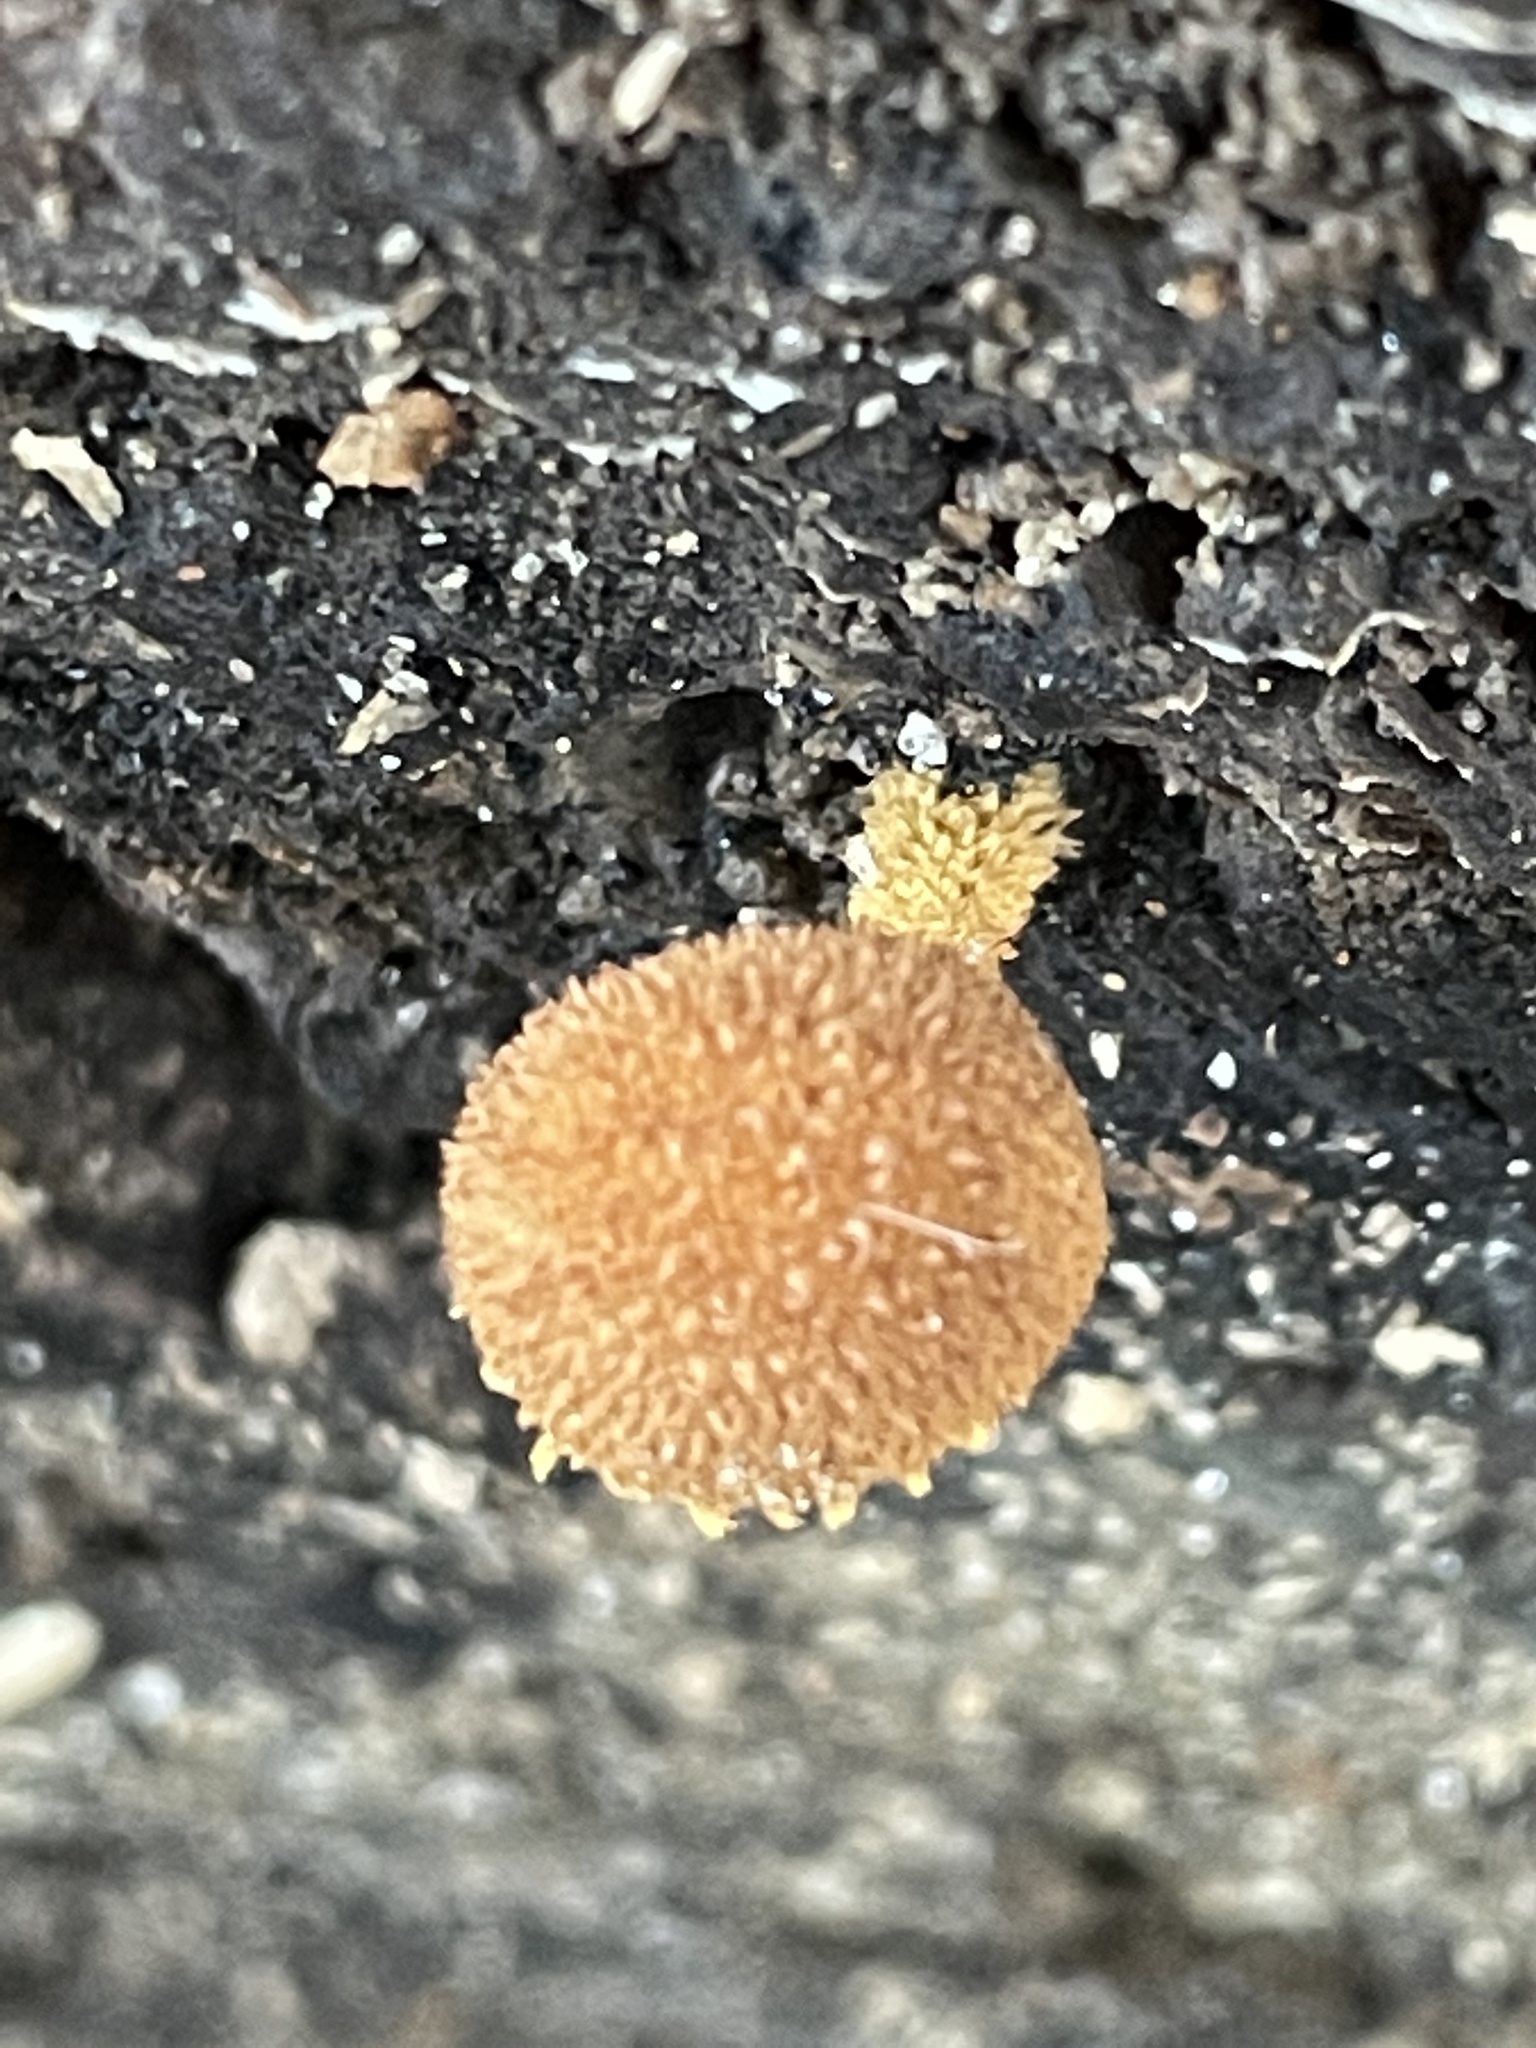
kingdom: Fungi
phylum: Basidiomycota
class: Agaricomycetes
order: Agaricales
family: Tubariaceae
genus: Flammulaster
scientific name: Flammulaster erinaceellus
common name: Powder-scale pholiota
